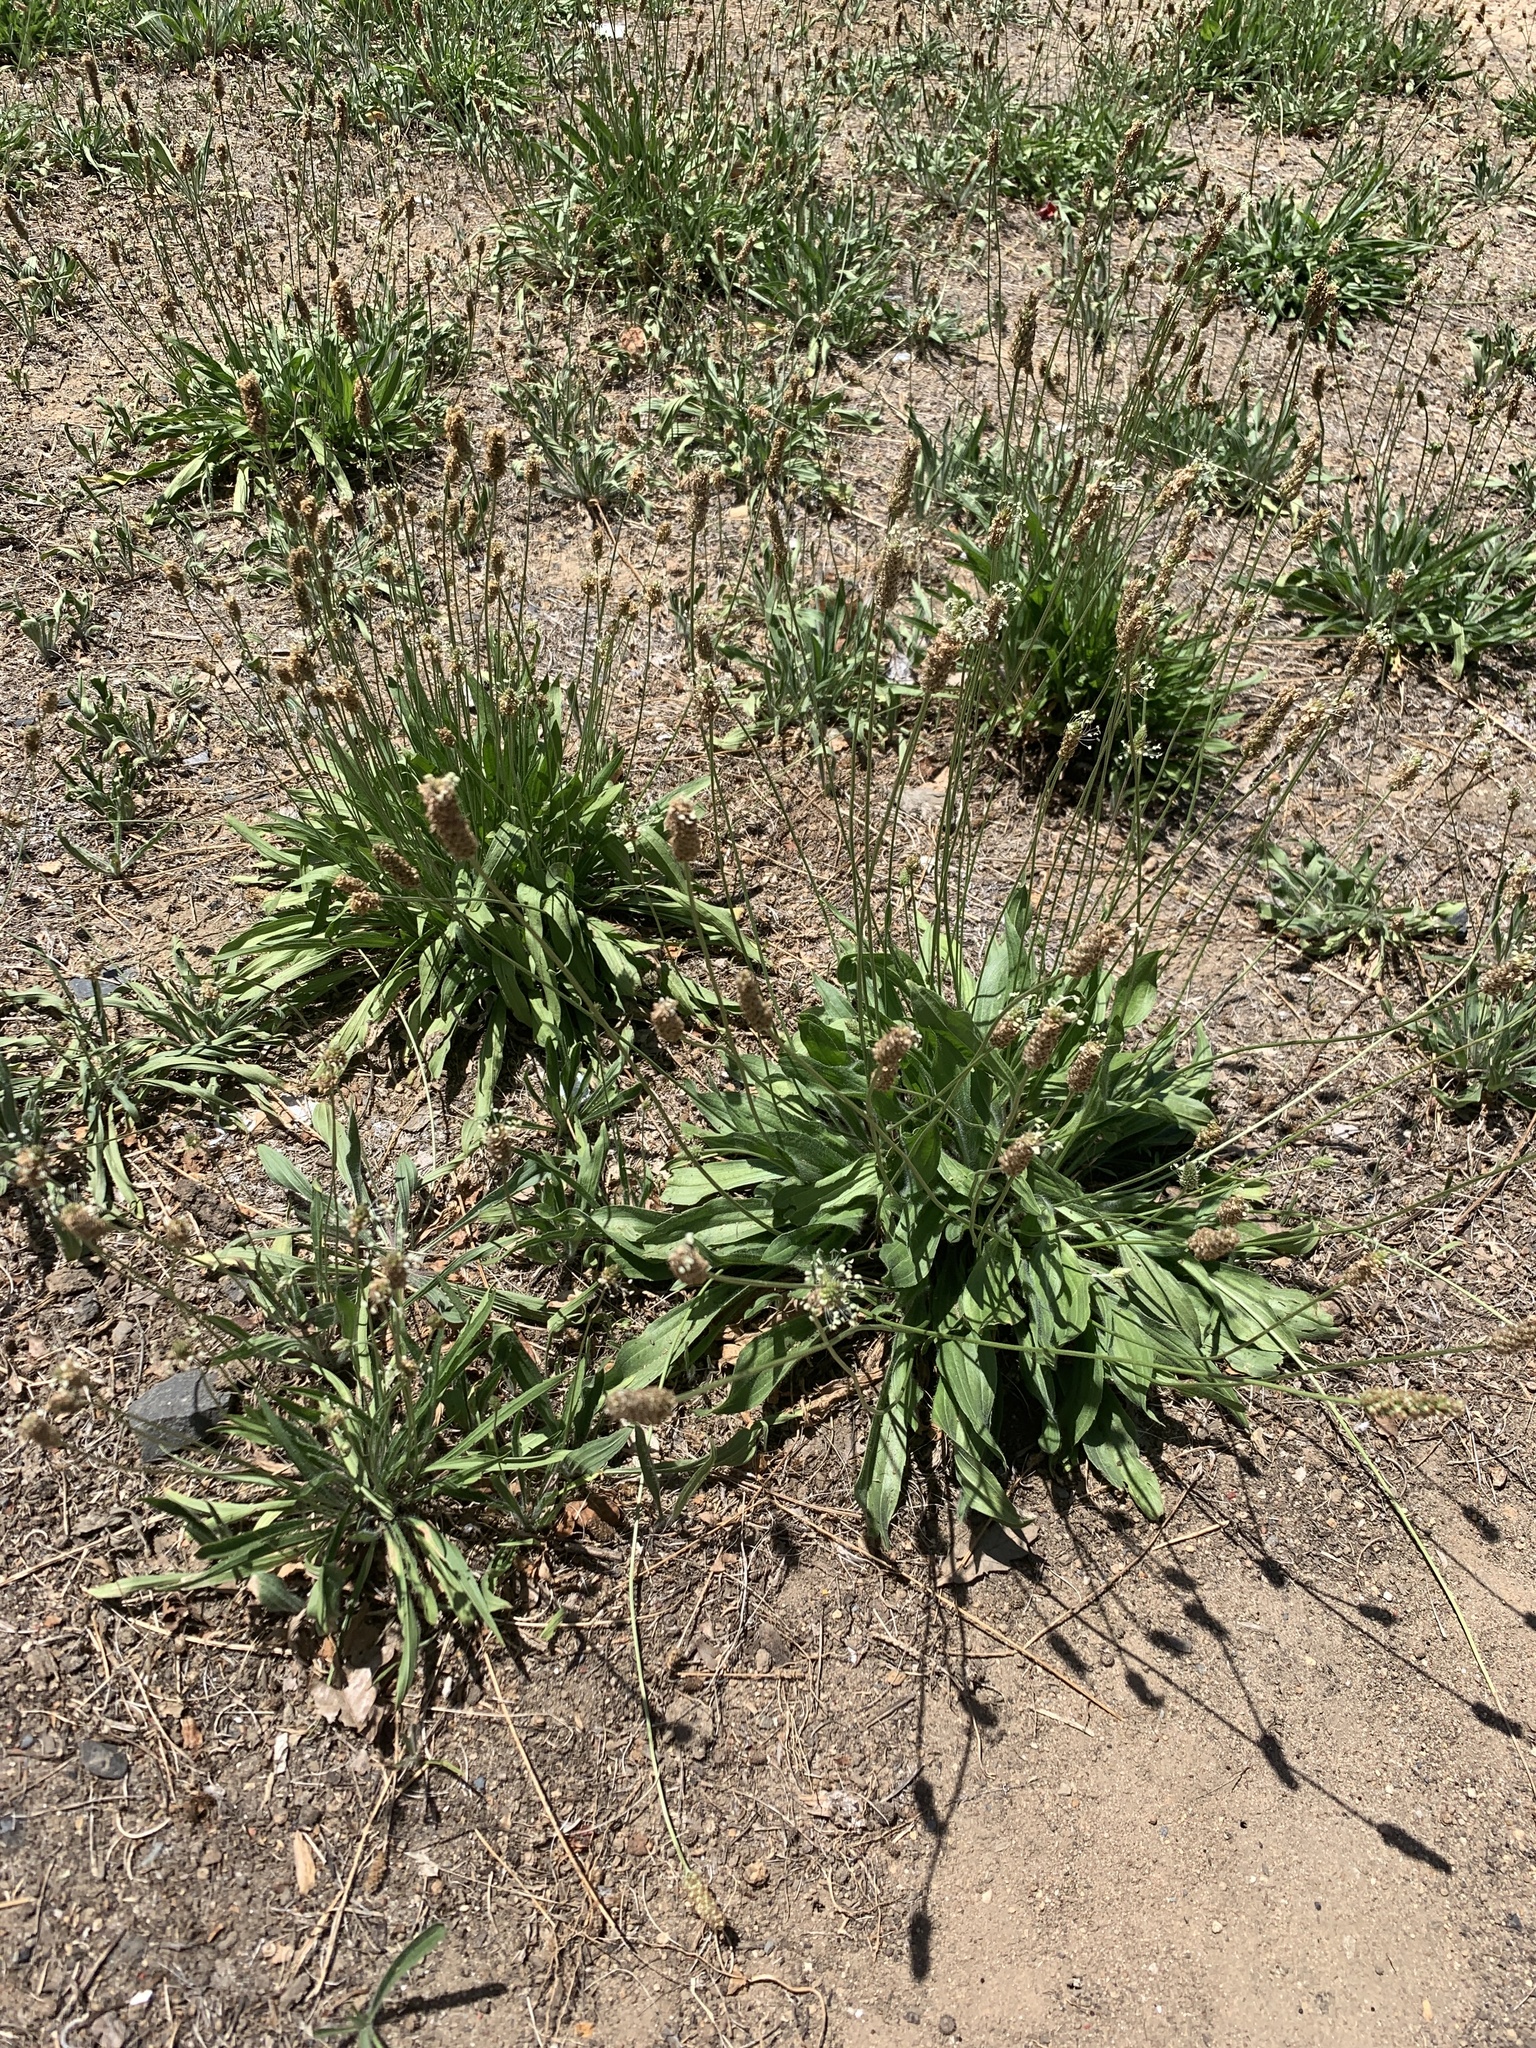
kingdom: Plantae
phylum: Tracheophyta
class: Magnoliopsida
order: Lamiales
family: Plantaginaceae
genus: Plantago
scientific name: Plantago lanceolata
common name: Ribwort plantain
